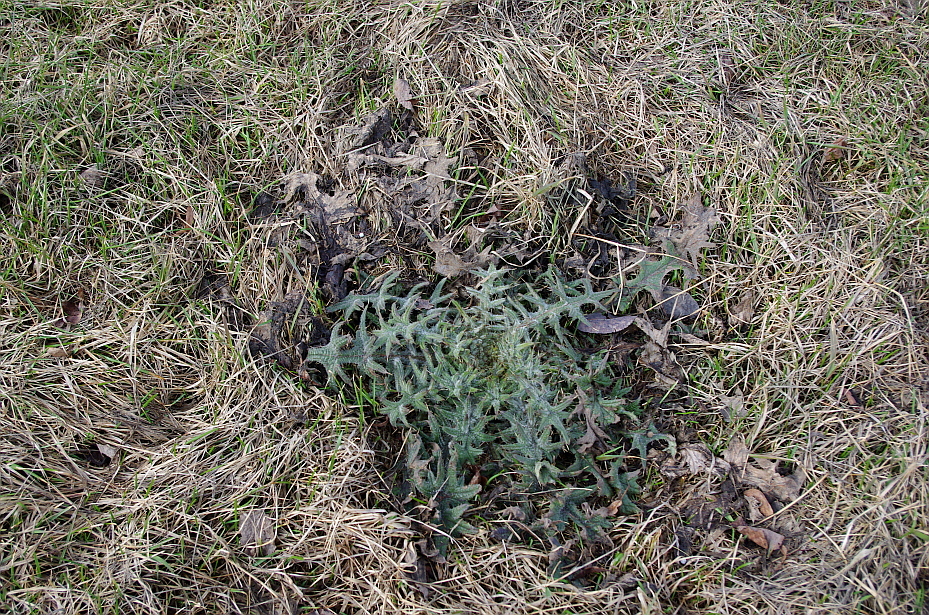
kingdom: Plantae
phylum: Tracheophyta
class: Magnoliopsida
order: Asterales
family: Asteraceae
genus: Cirsium
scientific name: Cirsium vulgare
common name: Bull thistle
